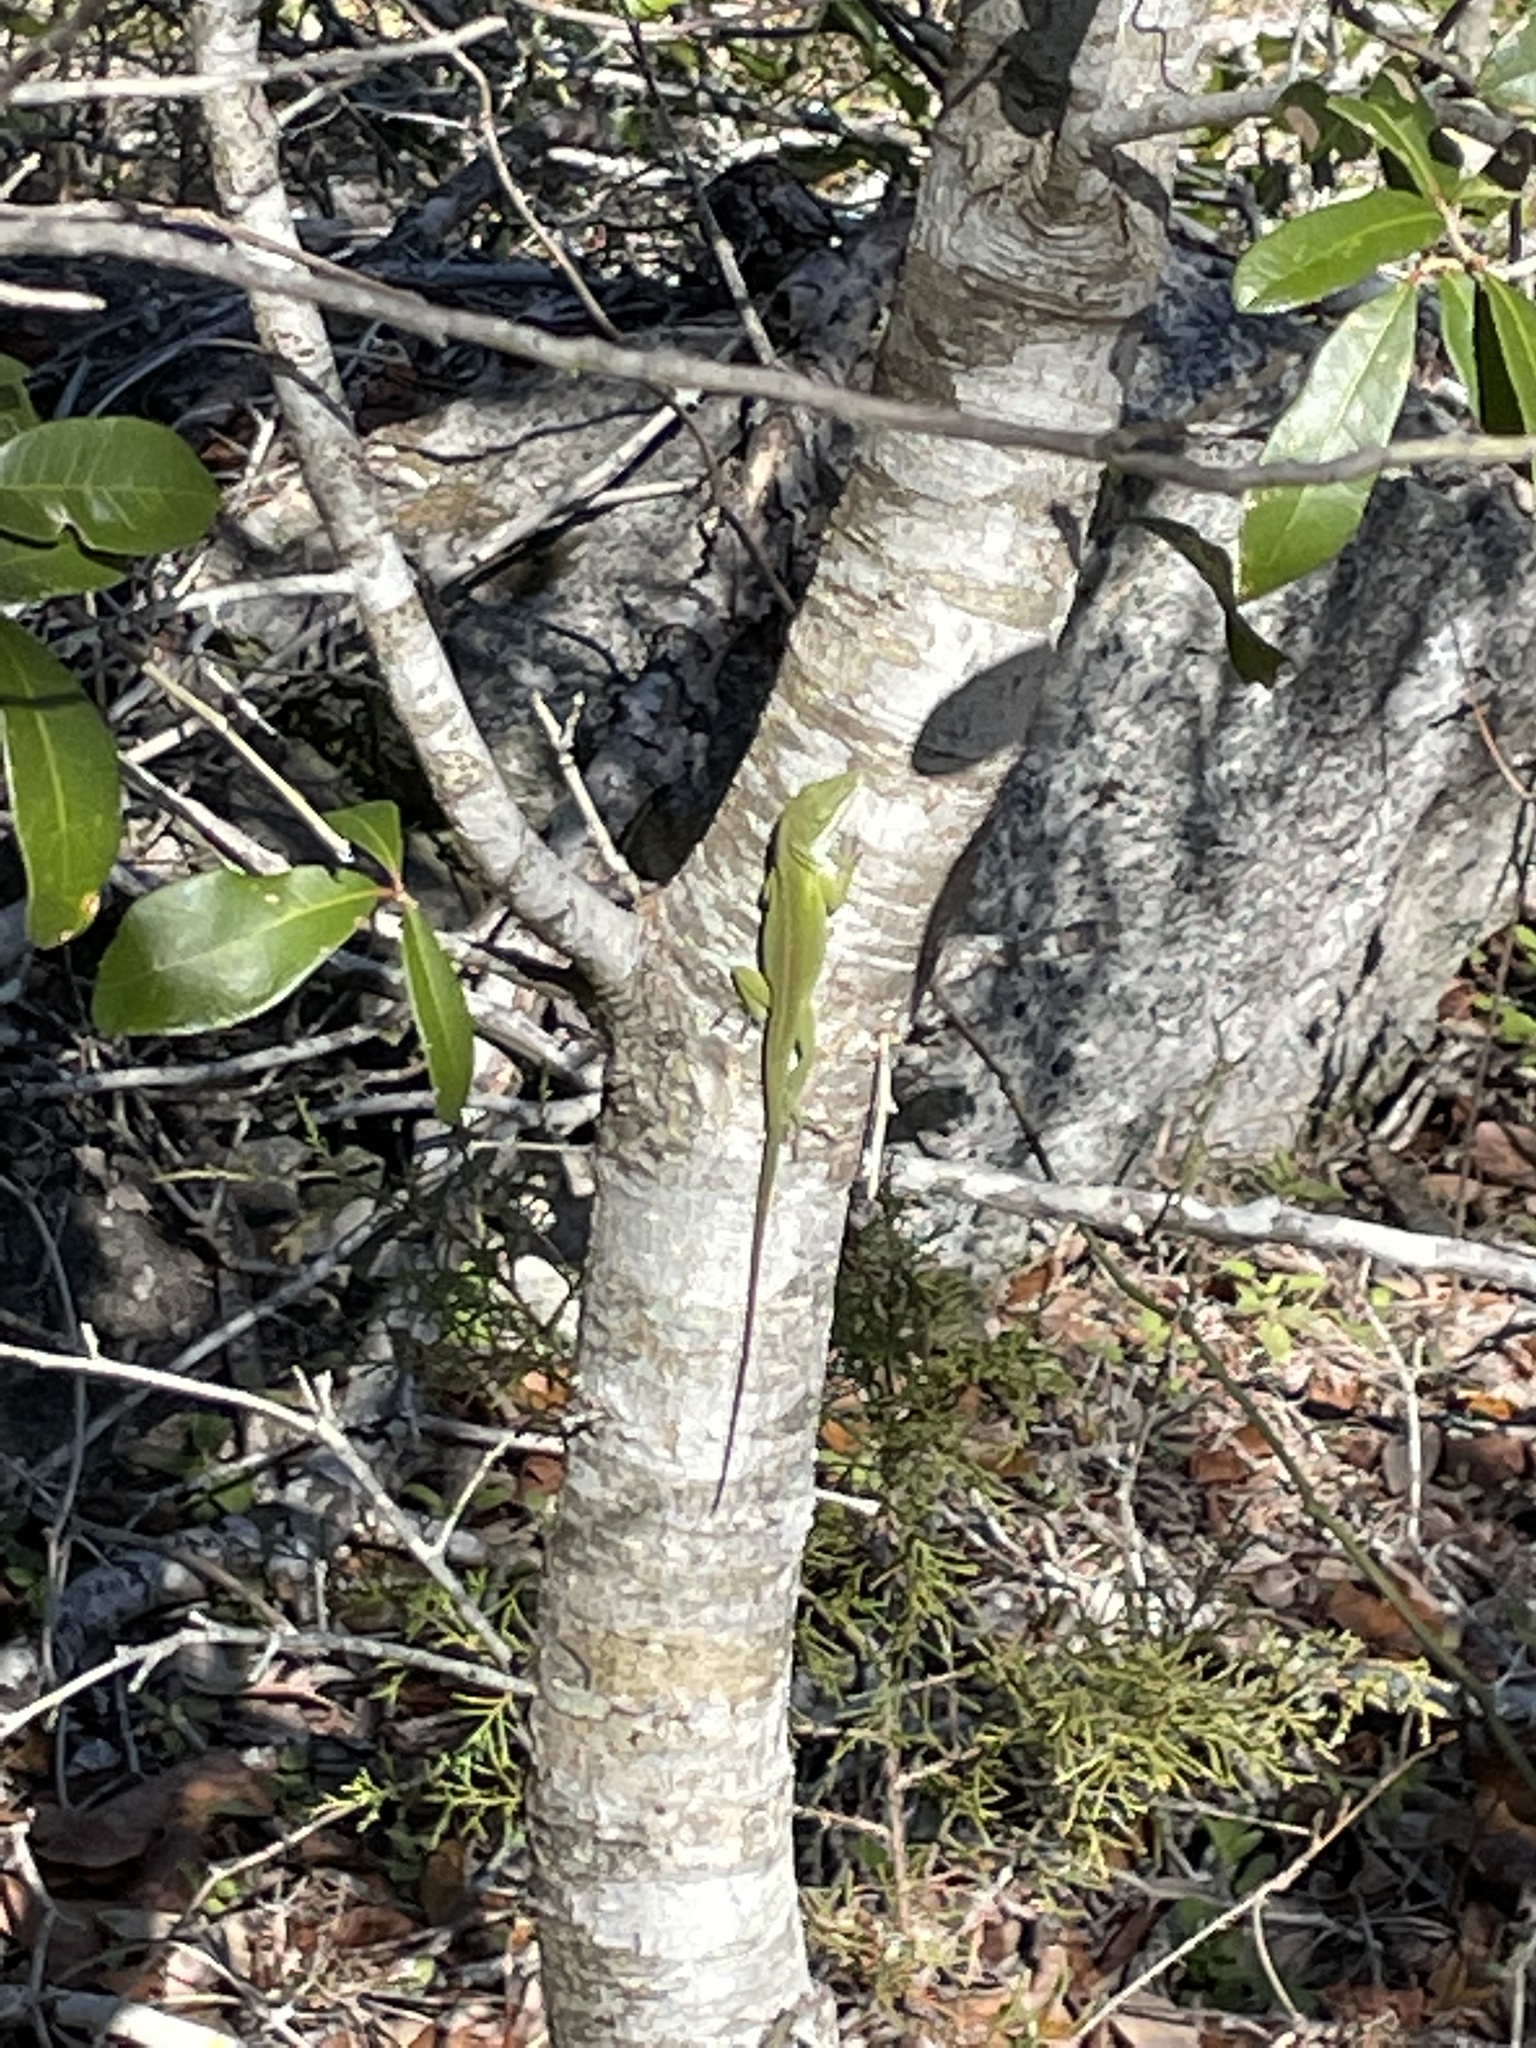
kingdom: Animalia
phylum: Chordata
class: Squamata
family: Dactyloidae
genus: Anolis
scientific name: Anolis carolinensis
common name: Green anole
